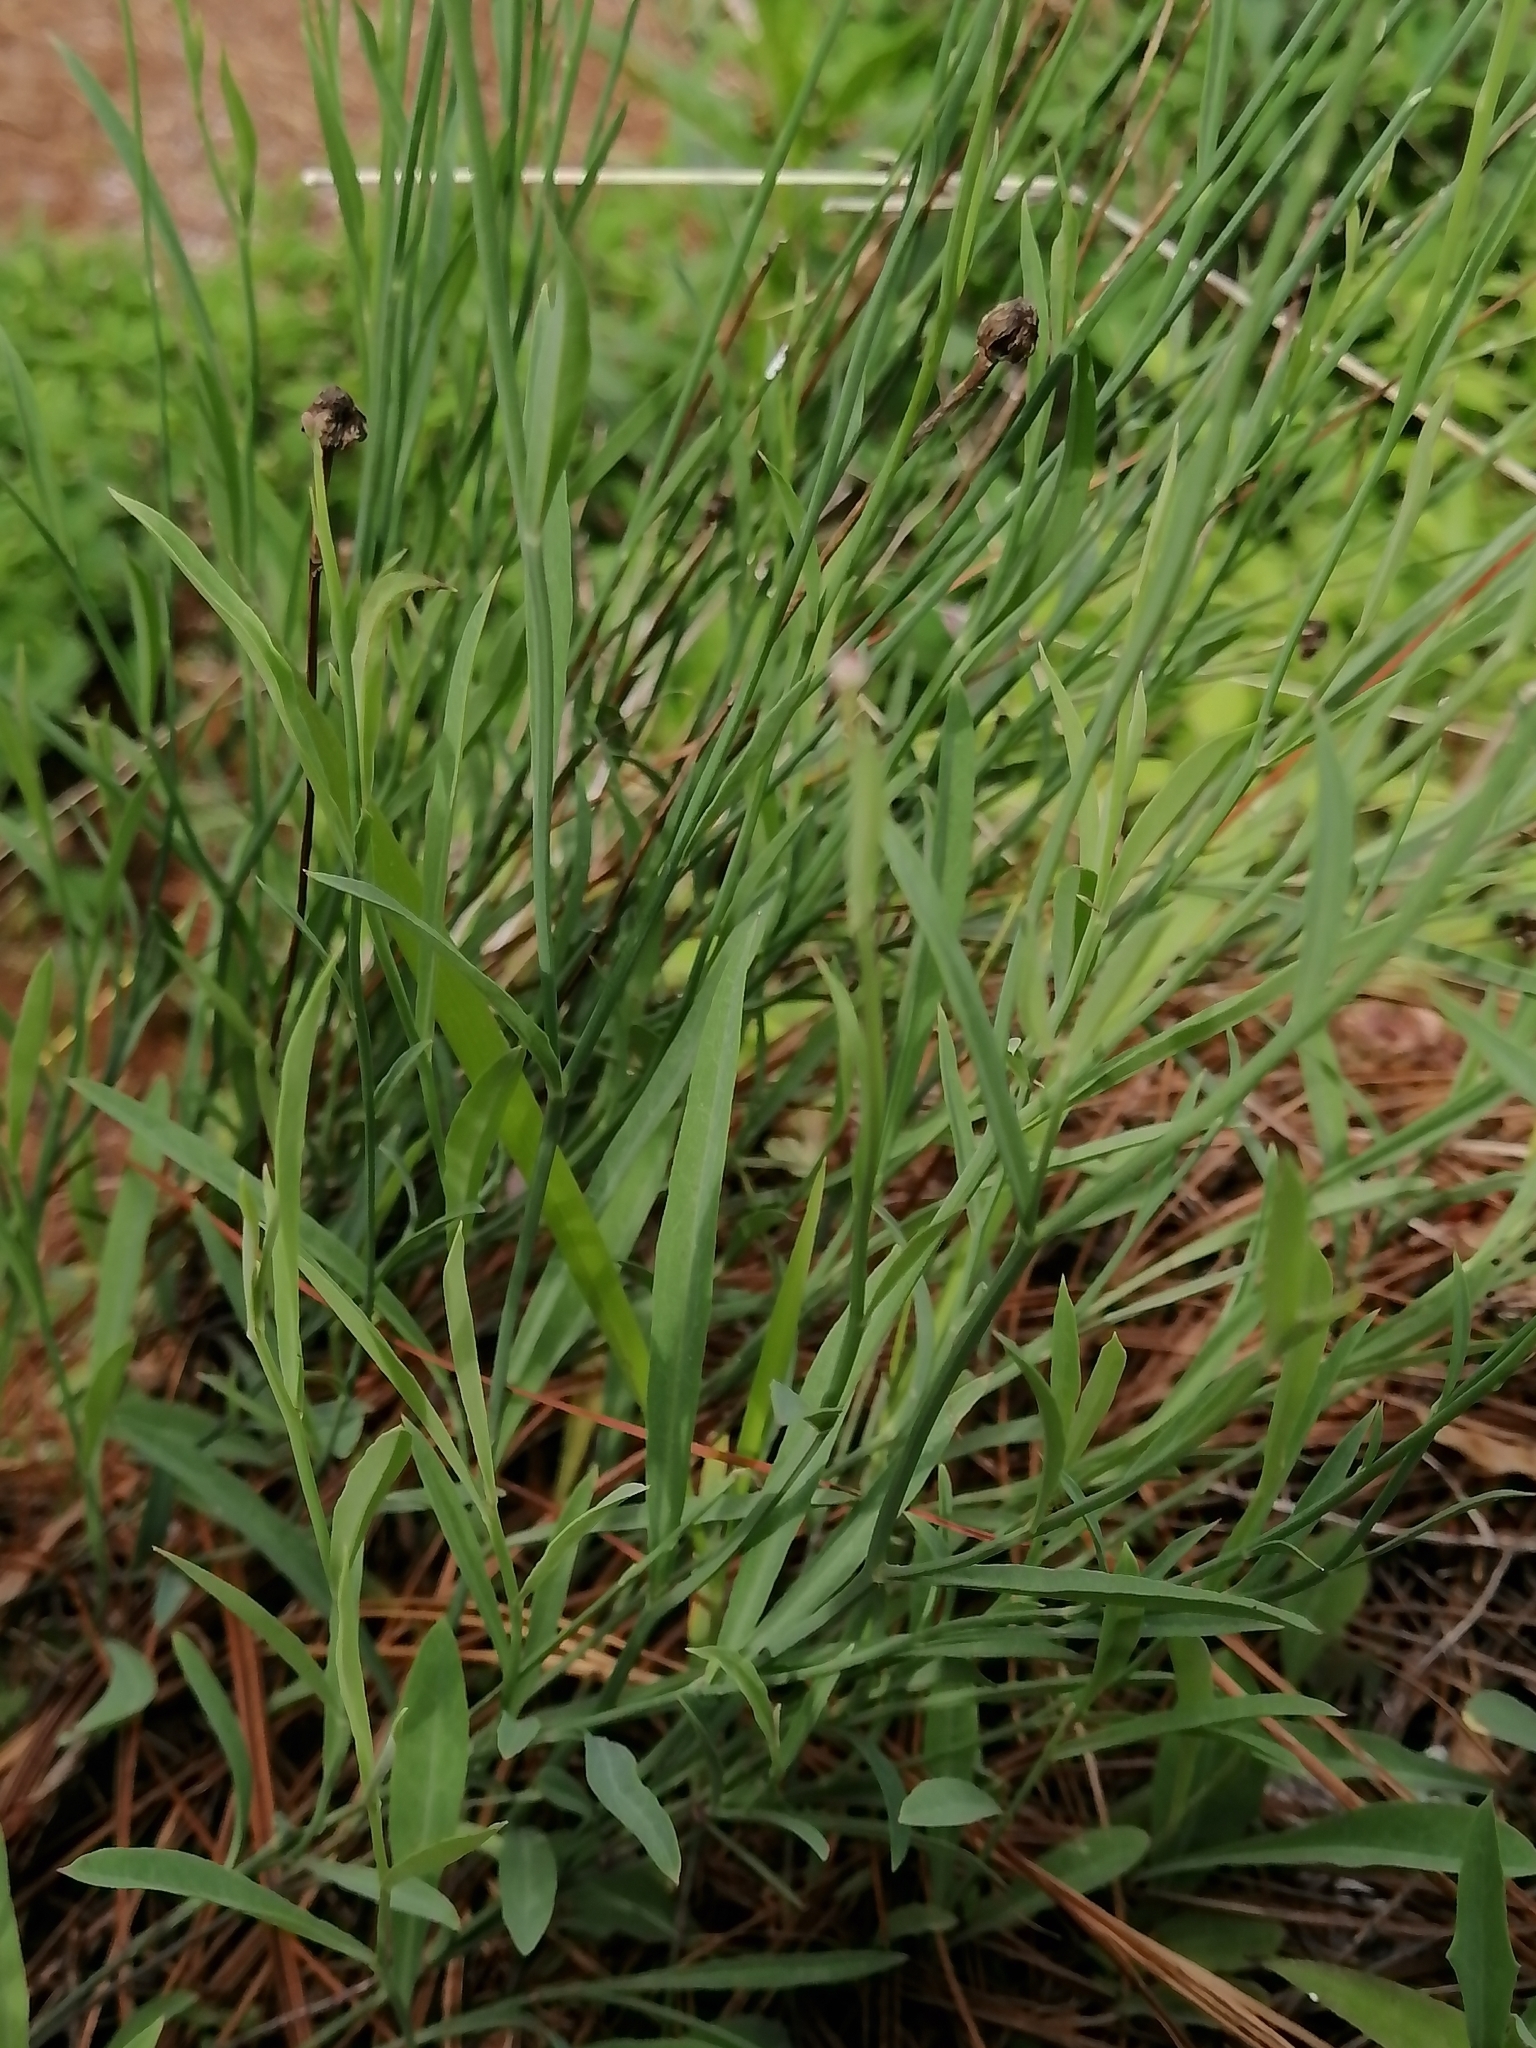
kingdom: Plantae
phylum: Tracheophyta
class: Magnoliopsida
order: Asterales
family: Asteraceae
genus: Pinaropappus
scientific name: Pinaropappus roseus
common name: Rock-lettuce
